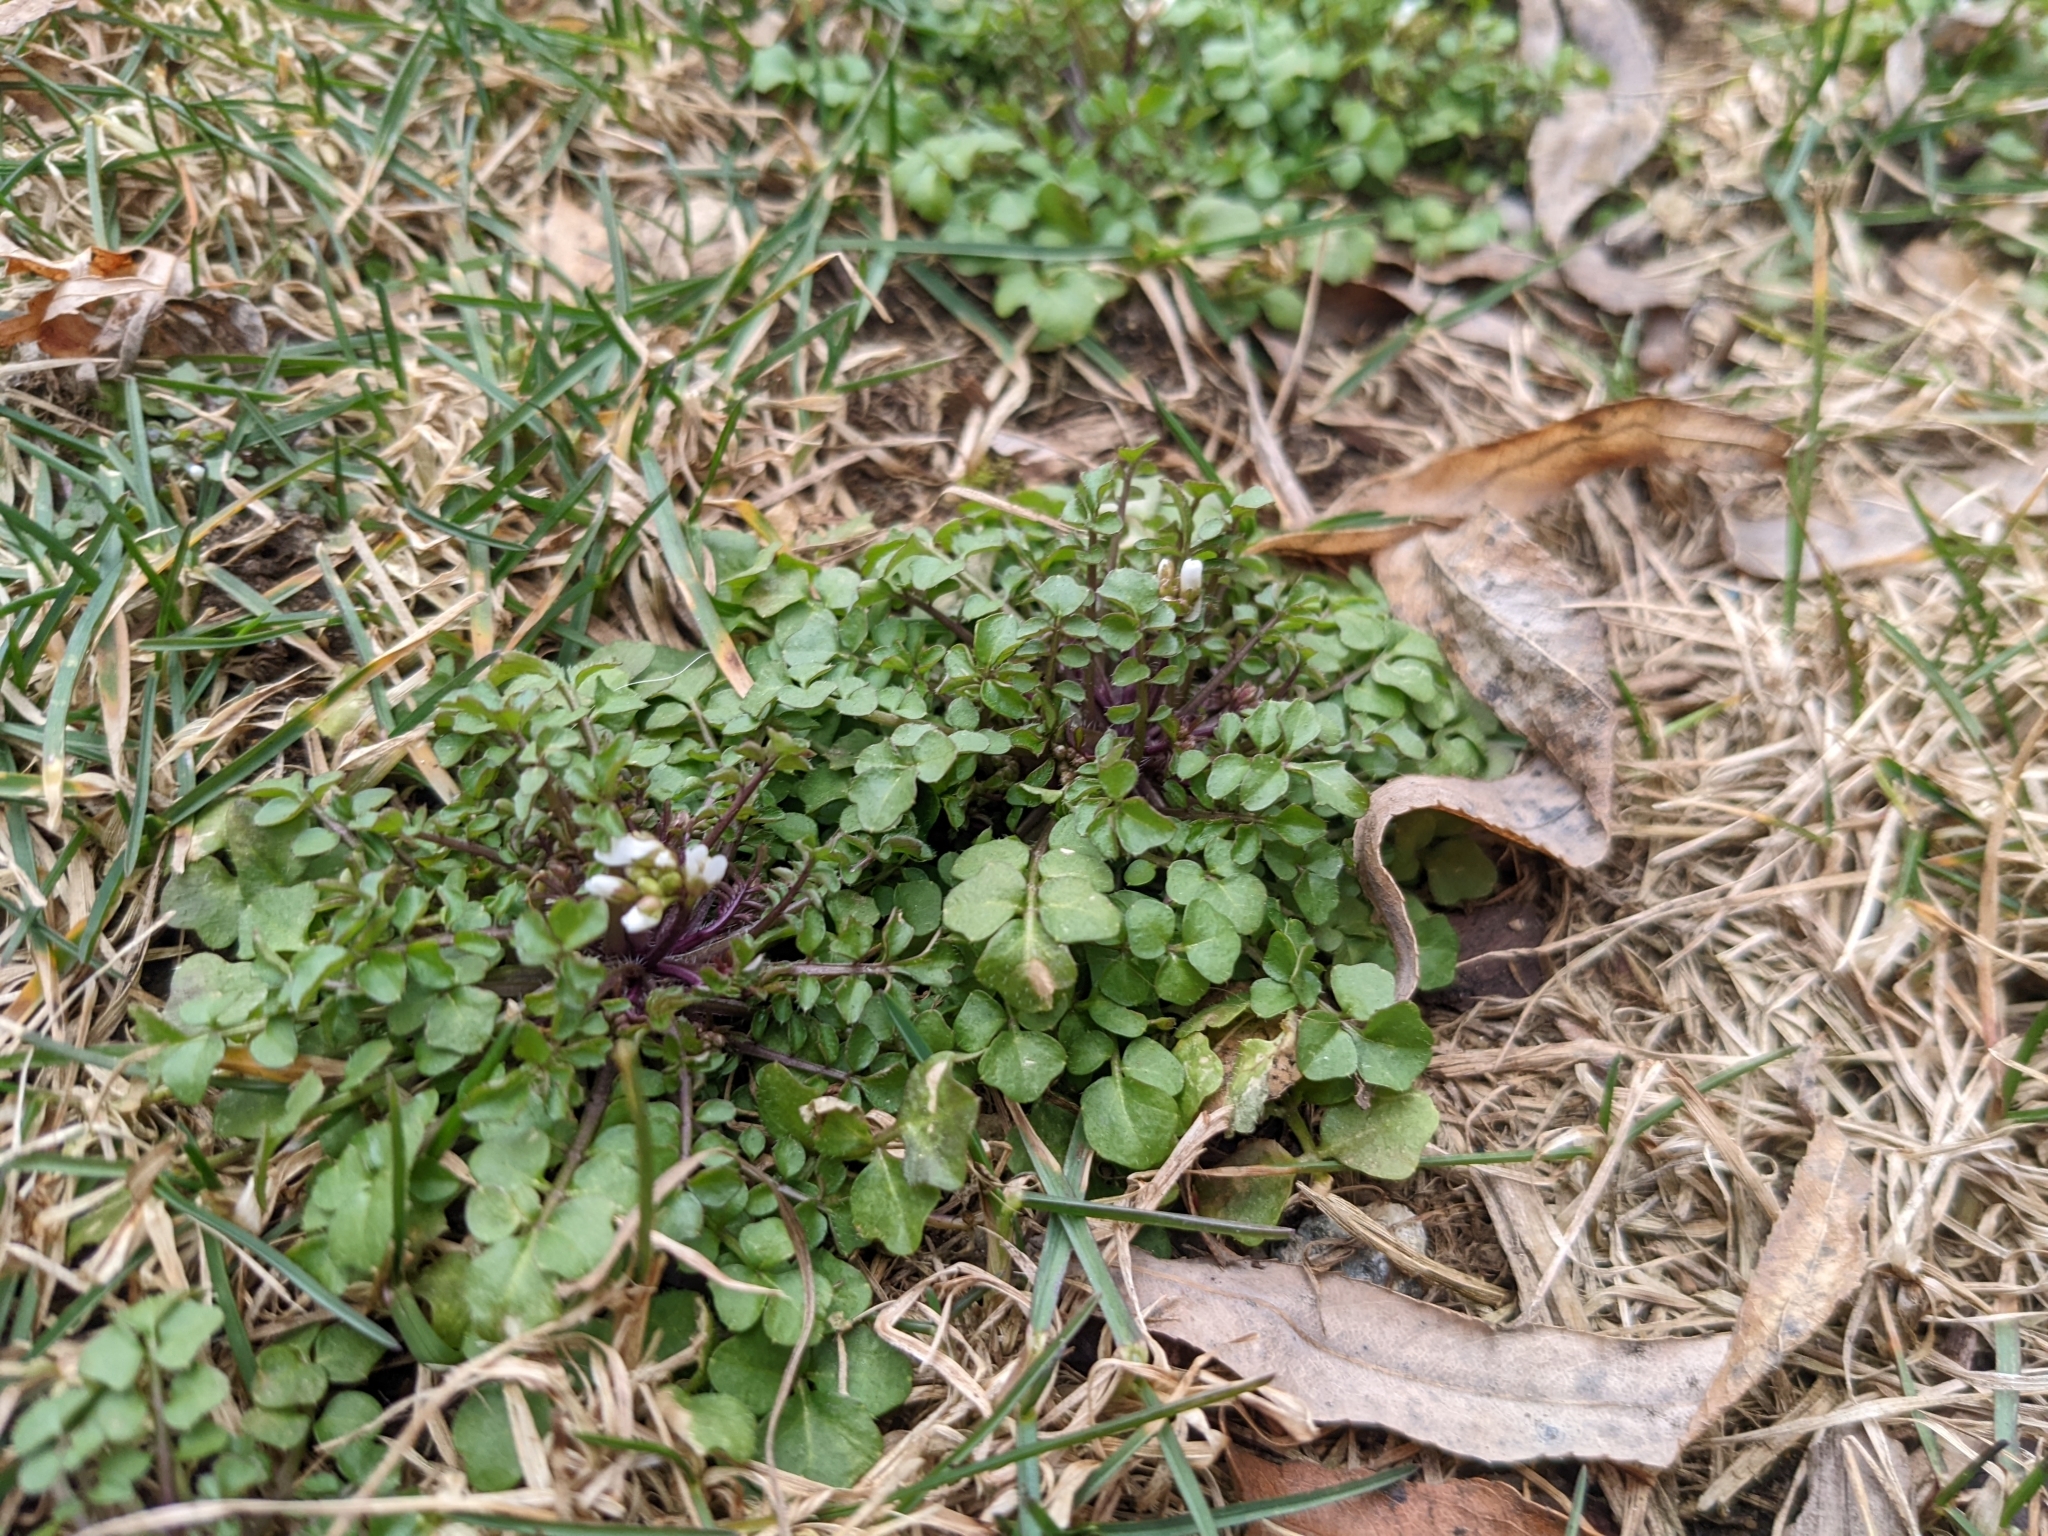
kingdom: Plantae
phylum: Tracheophyta
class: Magnoliopsida
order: Brassicales
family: Brassicaceae
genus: Cardamine
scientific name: Cardamine hirsuta
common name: Hairy bittercress
